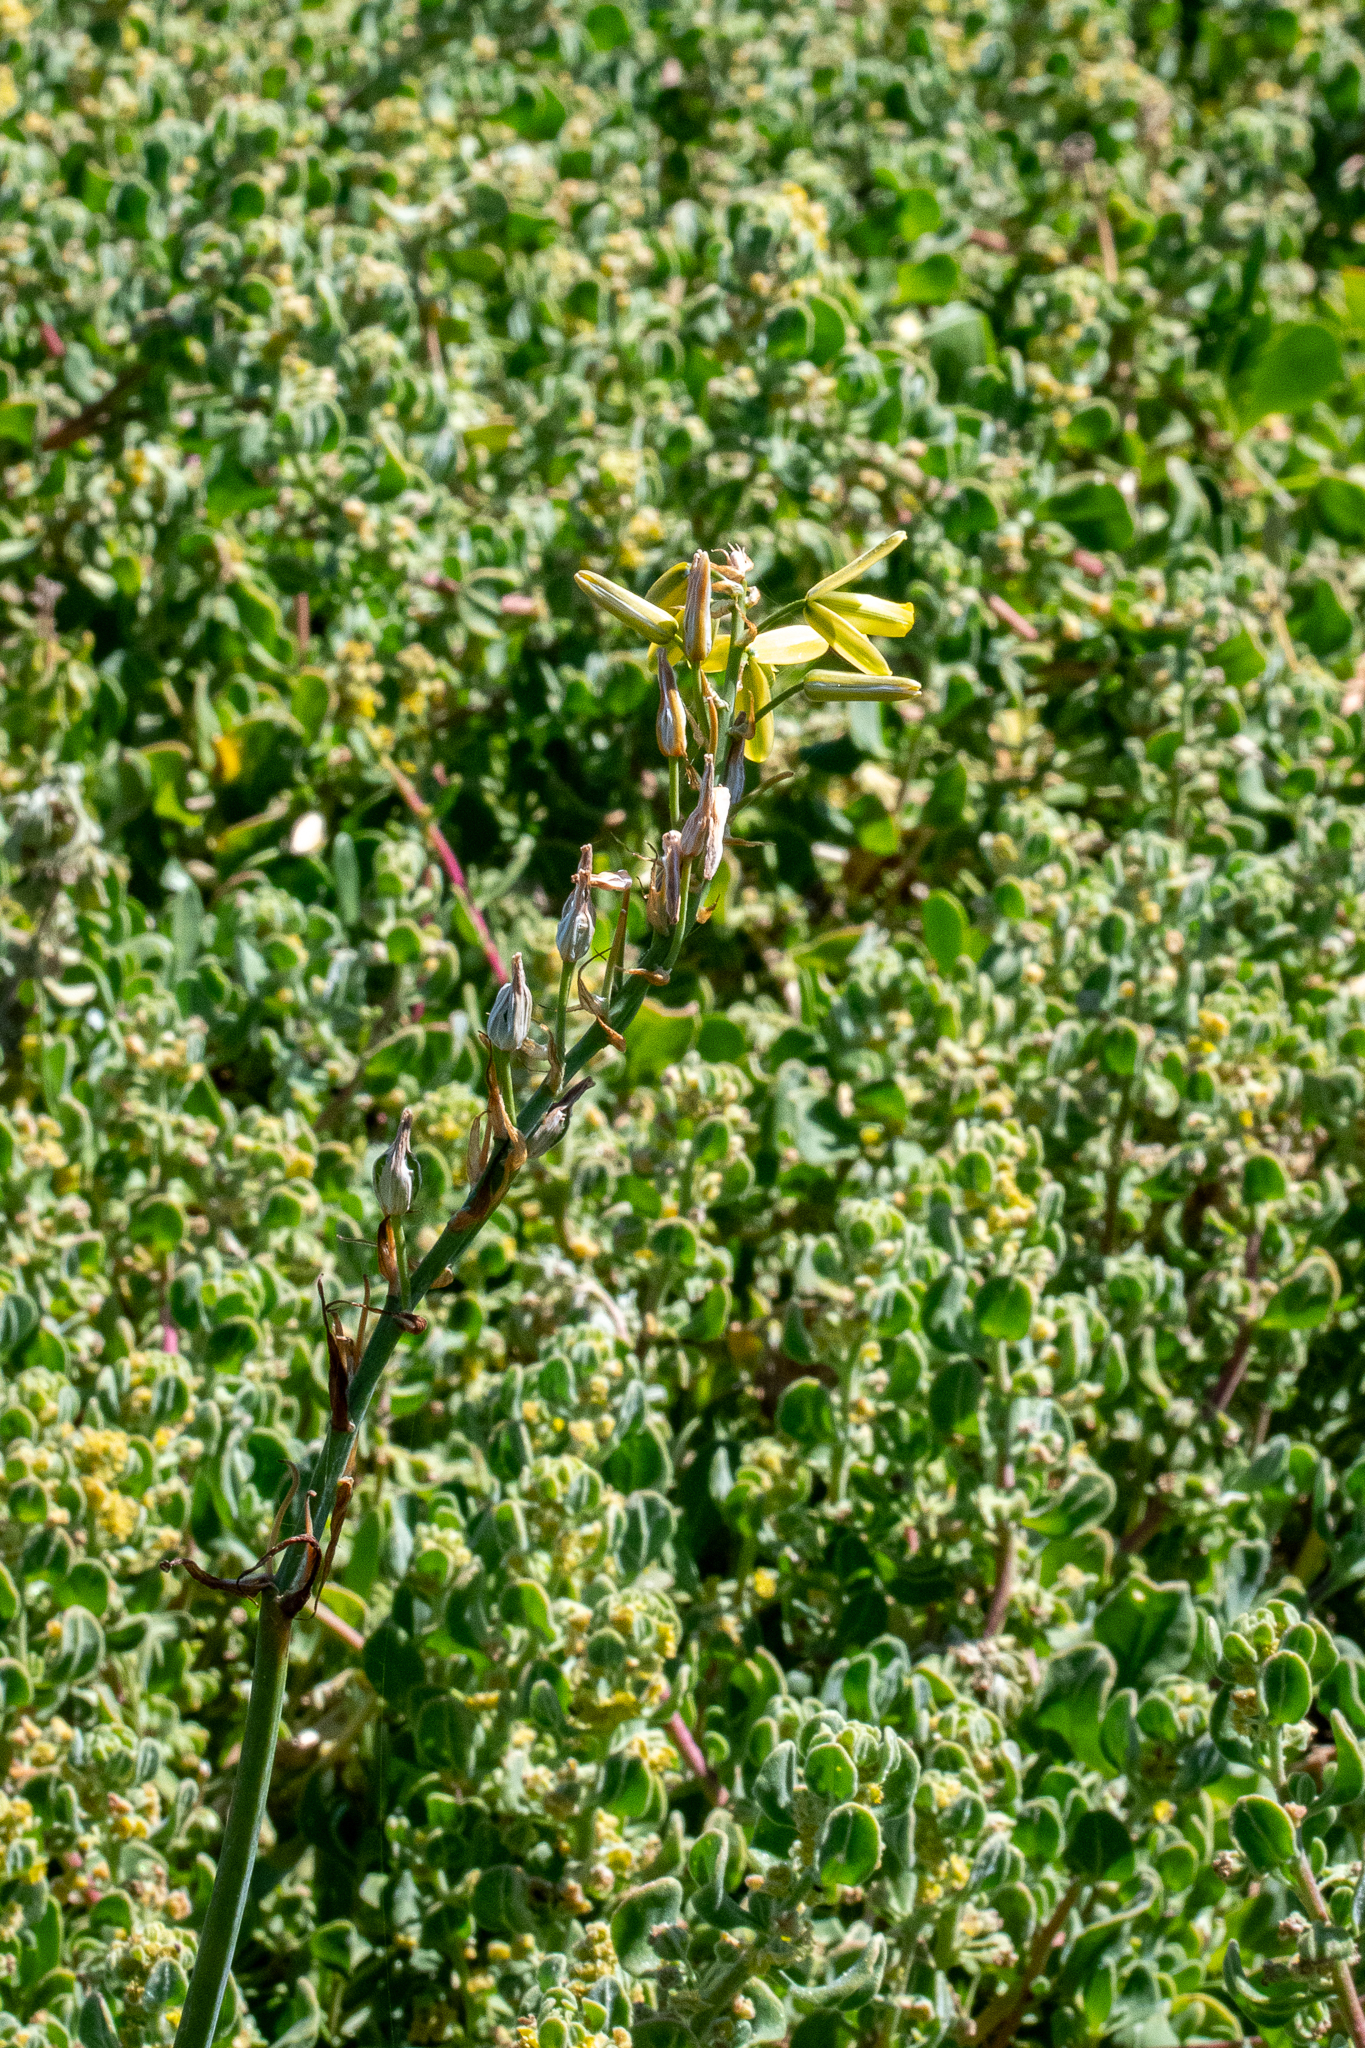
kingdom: Plantae
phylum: Tracheophyta
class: Liliopsida
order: Asparagales
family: Asparagaceae
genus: Albuca
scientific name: Albuca flaccida
